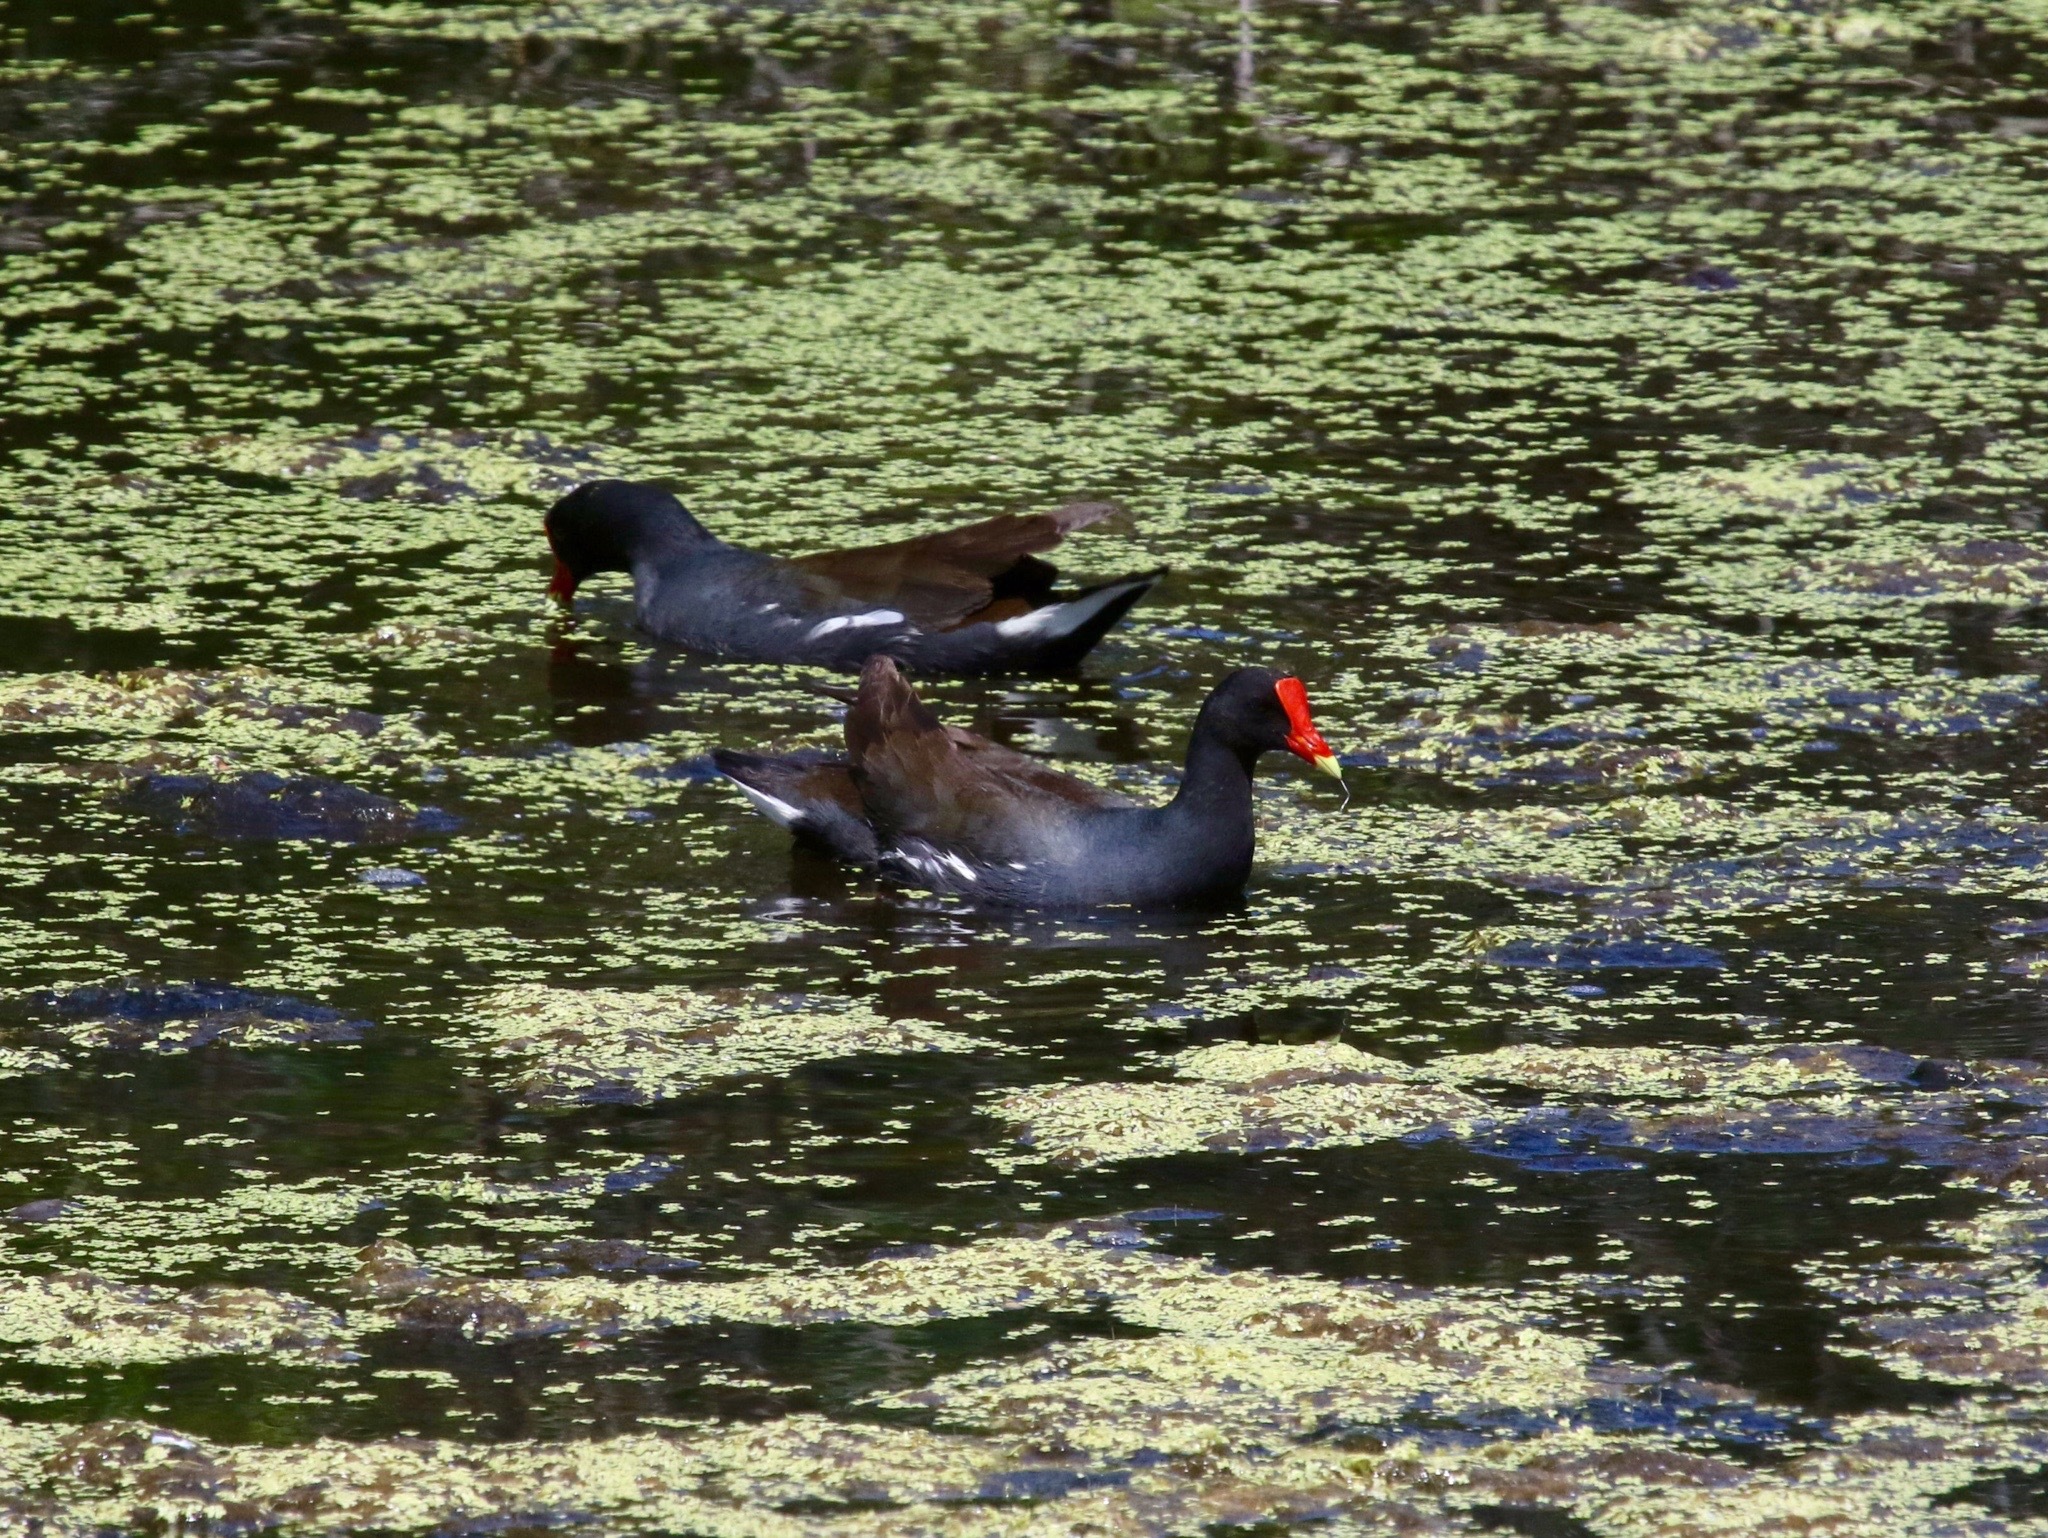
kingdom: Animalia
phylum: Chordata
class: Aves
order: Gruiformes
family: Rallidae
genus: Gallinula
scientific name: Gallinula chloropus
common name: Common moorhen
